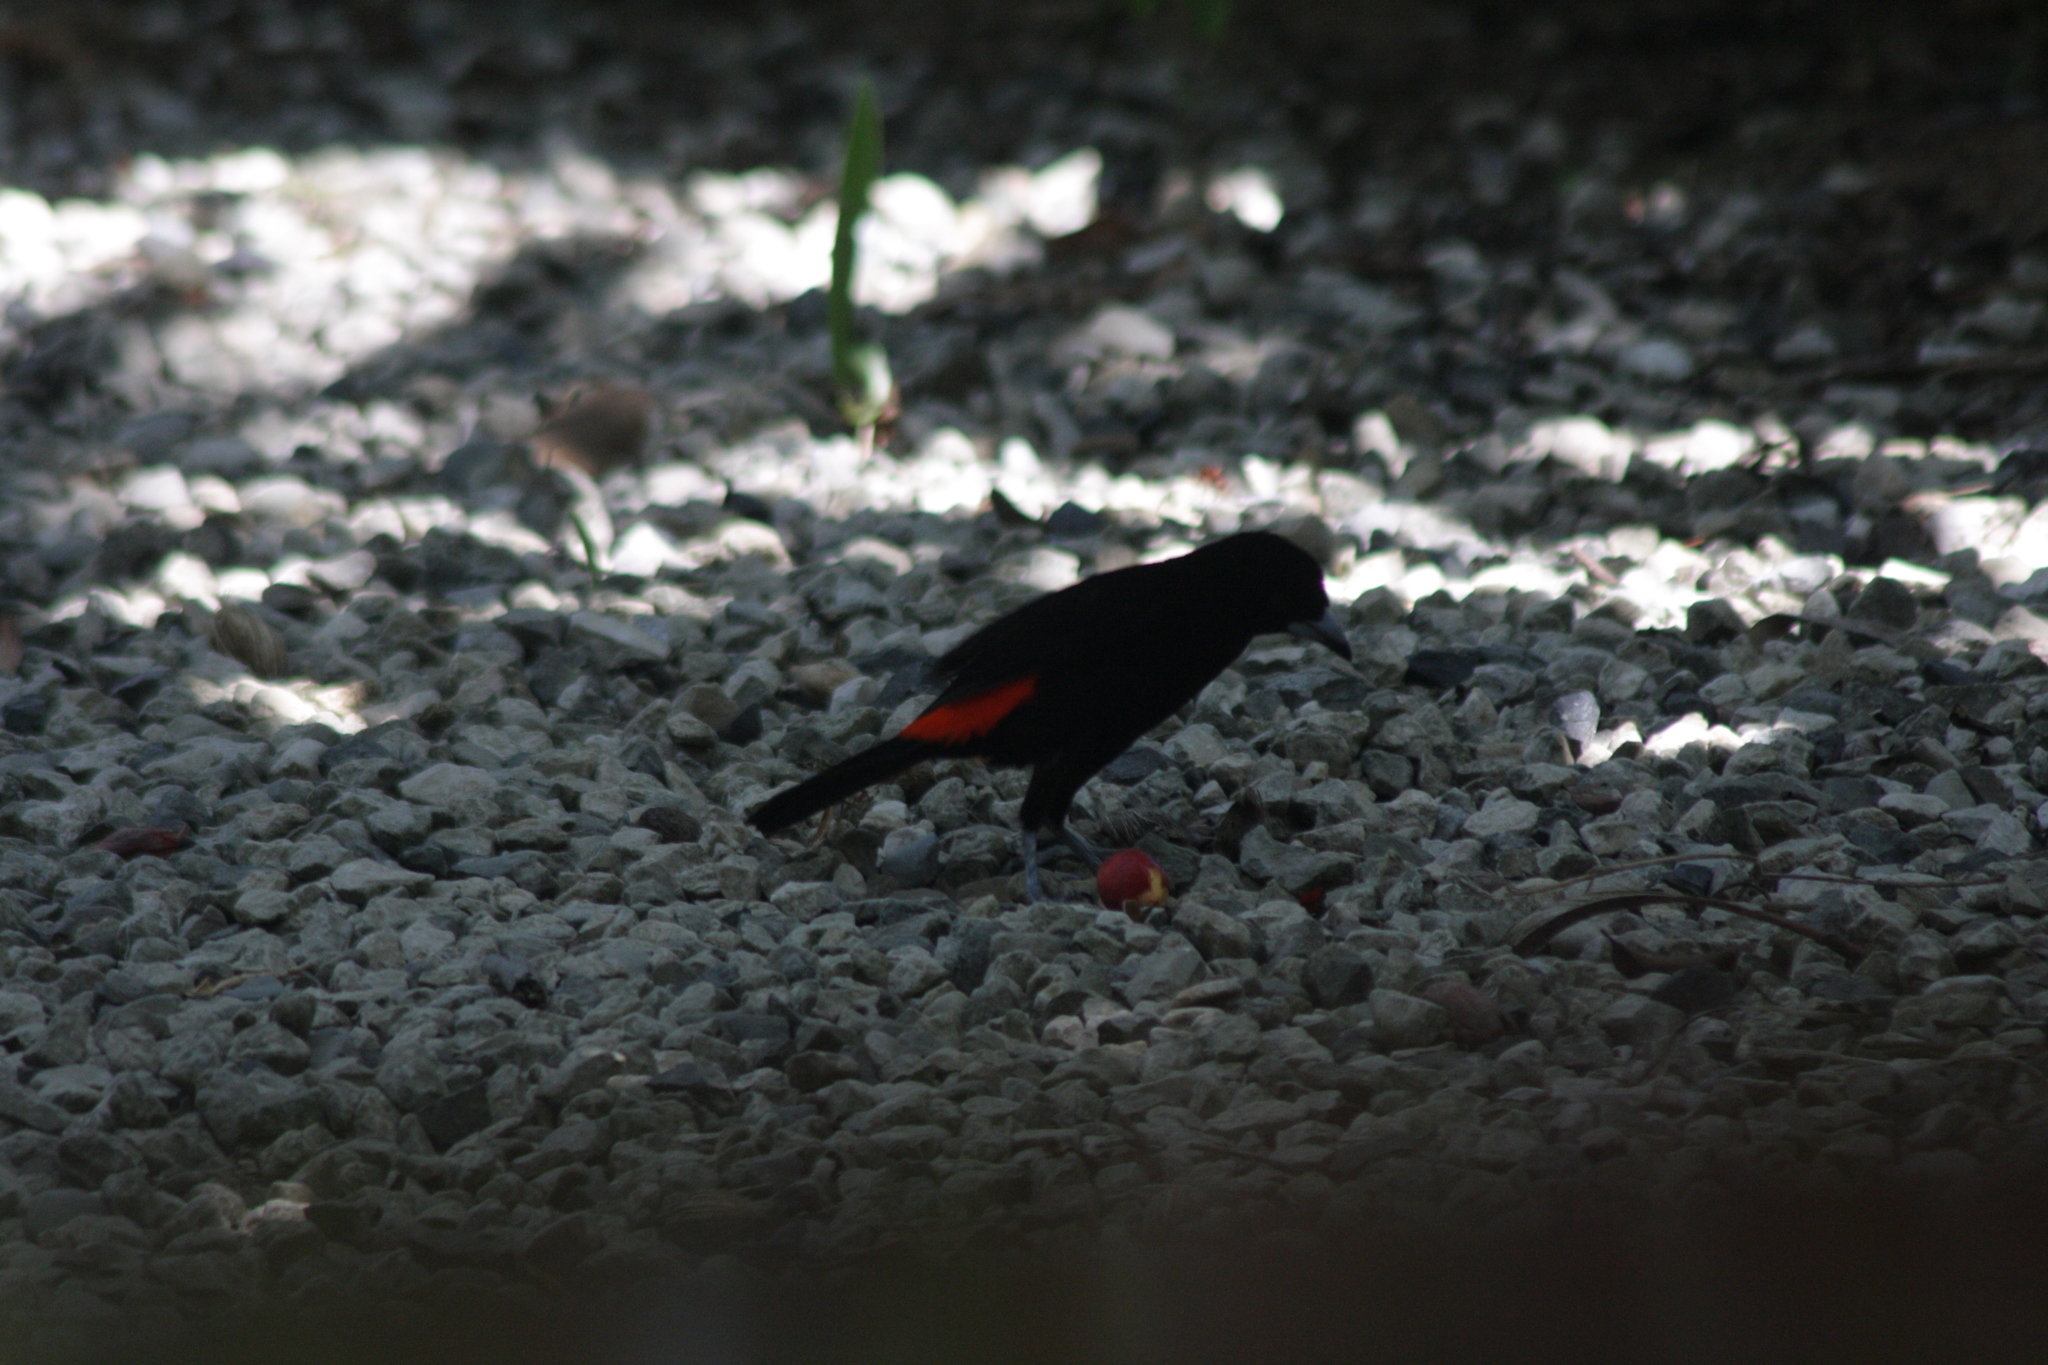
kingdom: Animalia
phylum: Chordata
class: Aves
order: Passeriformes
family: Thraupidae
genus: Ramphocelus
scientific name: Ramphocelus passerinii
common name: Passerini's tanager
